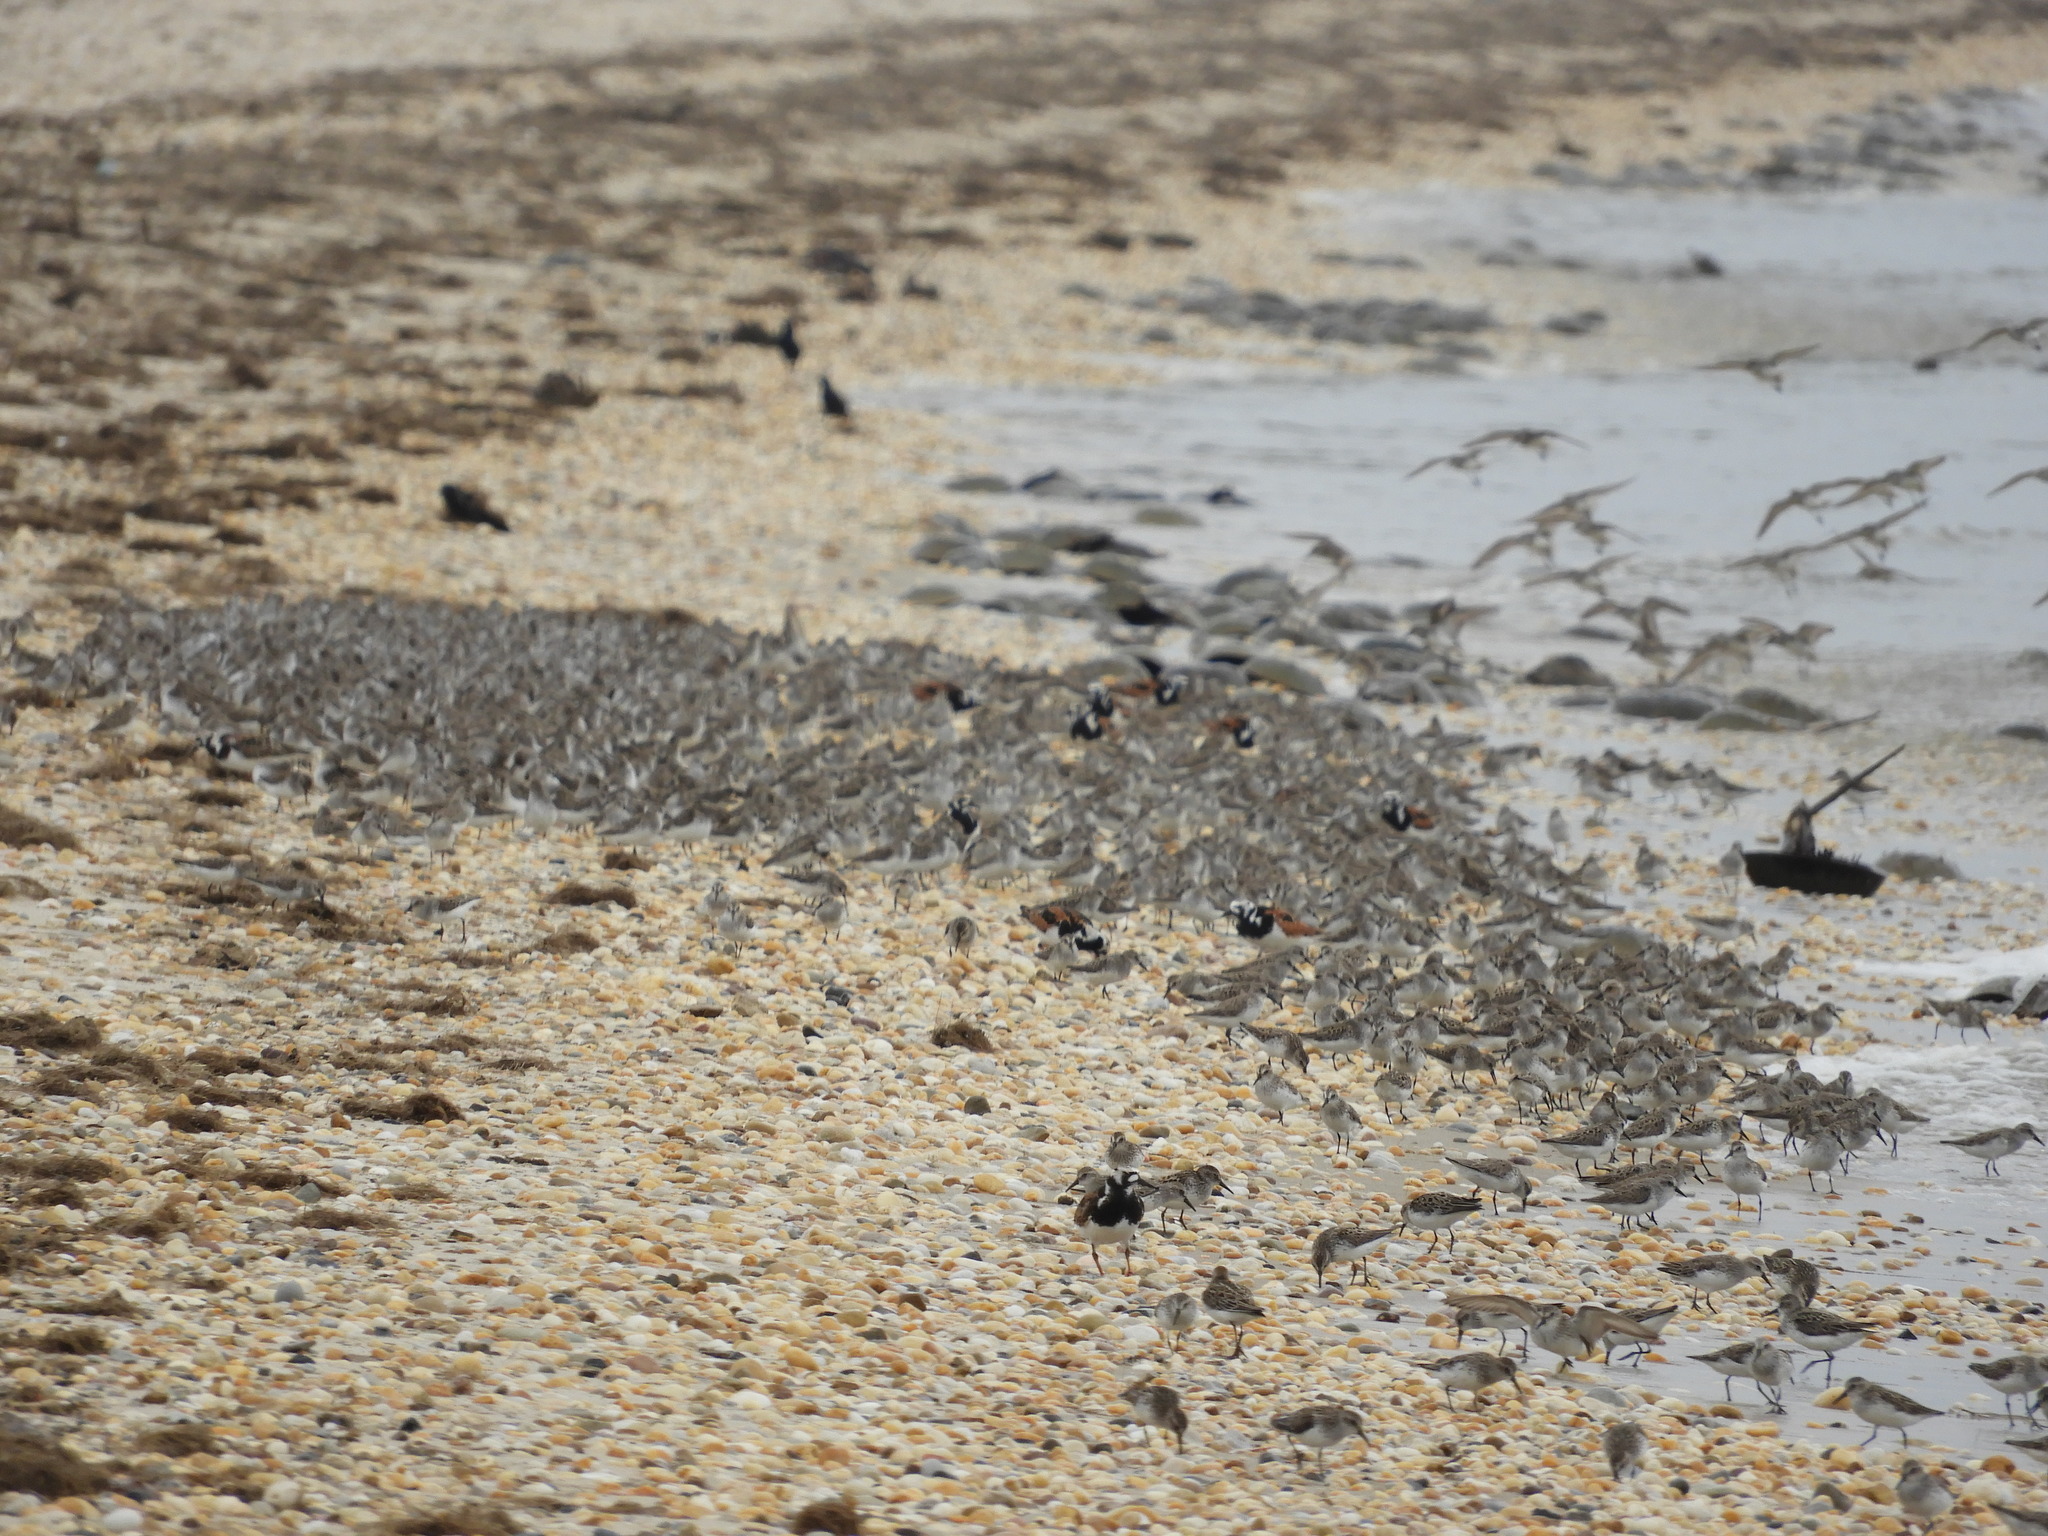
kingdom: Animalia
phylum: Chordata
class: Aves
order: Charadriiformes
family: Scolopacidae
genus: Arenaria
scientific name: Arenaria interpres
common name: Ruddy turnstone
